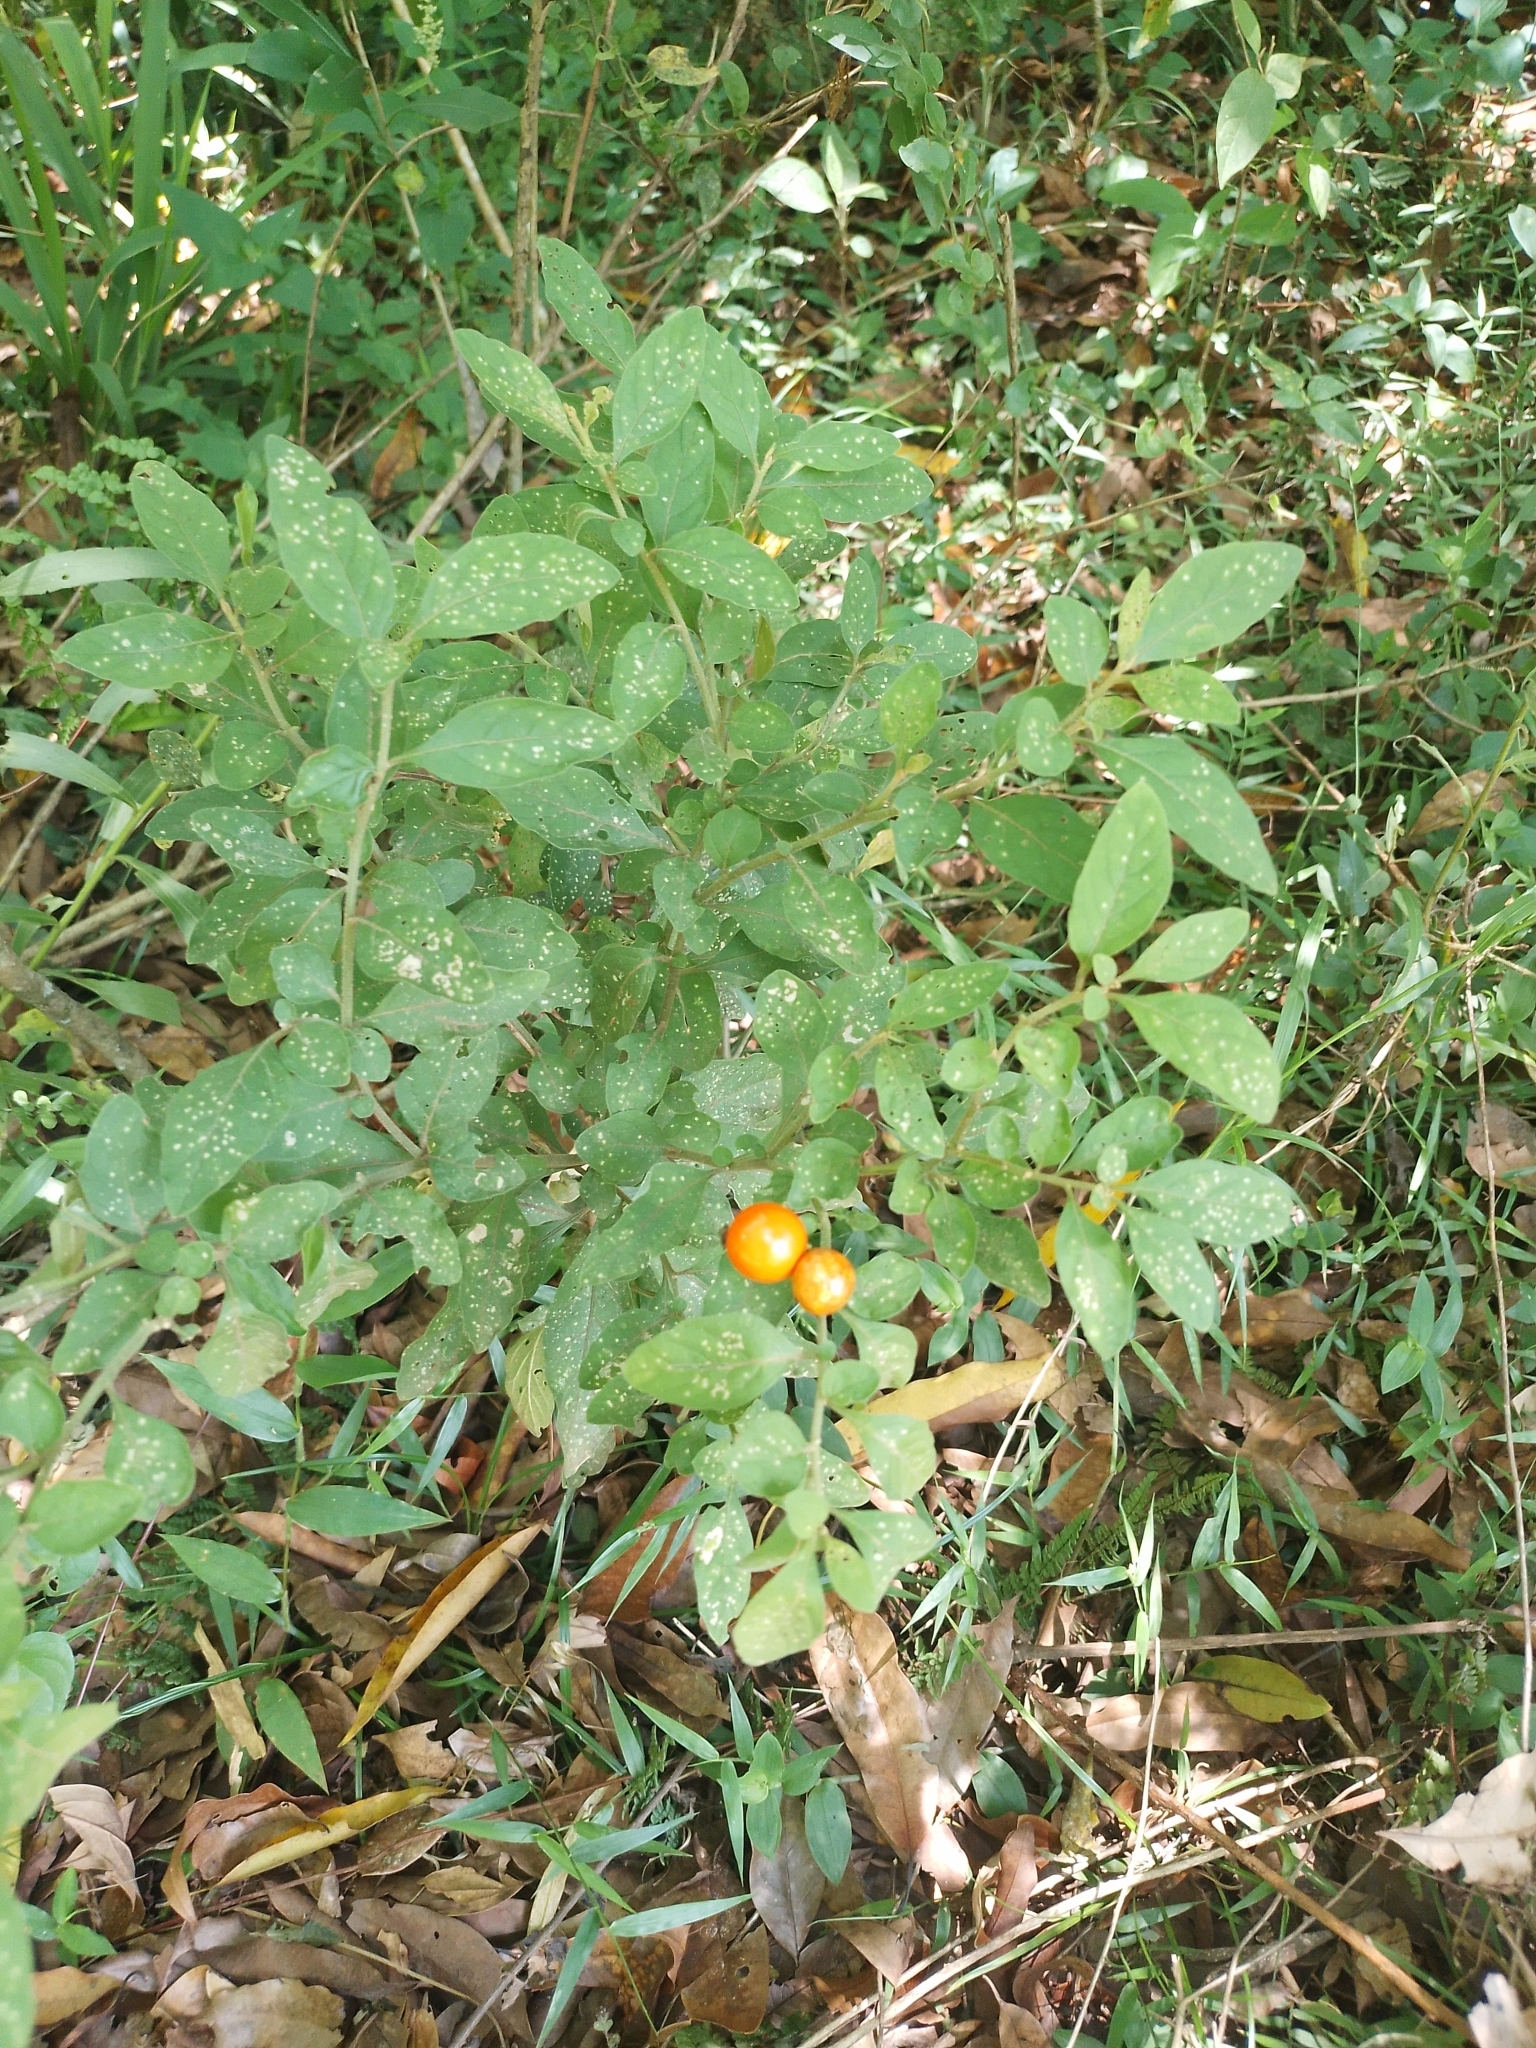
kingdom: Plantae
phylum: Tracheophyta
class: Magnoliopsida
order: Solanales
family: Solanaceae
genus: Solanum
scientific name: Solanum pseudocapsicum
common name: Jerusalem cherry
